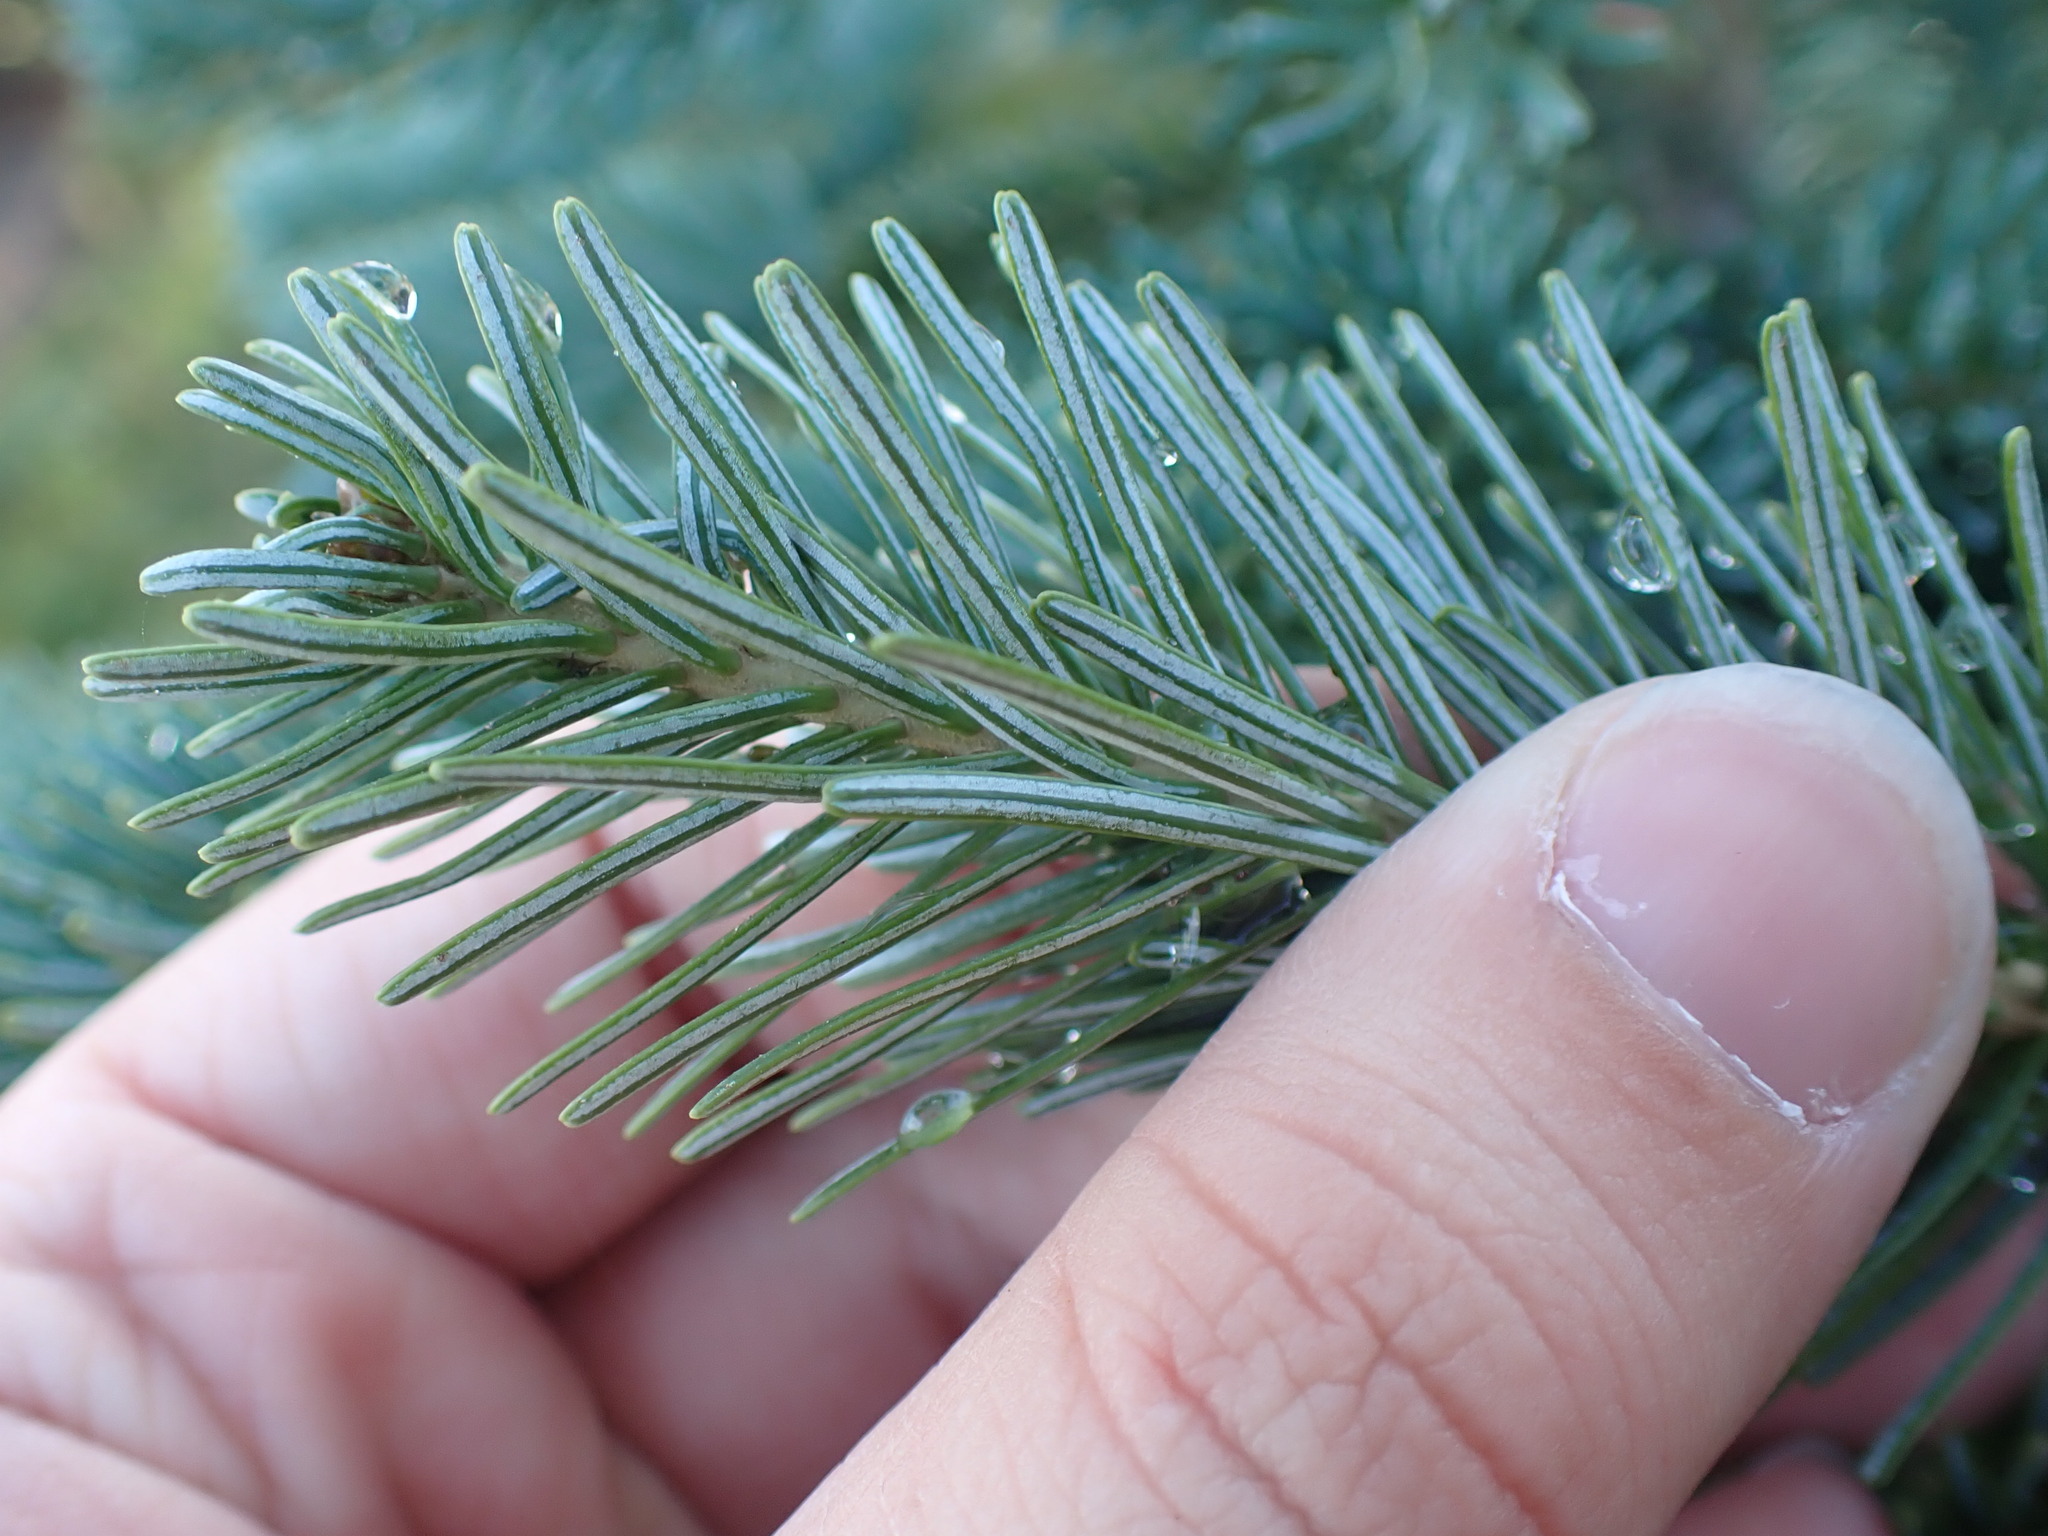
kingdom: Plantae
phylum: Tracheophyta
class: Pinopsida
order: Pinales
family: Pinaceae
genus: Abies
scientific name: Abies lasiocarpa
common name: Subalpine fir
